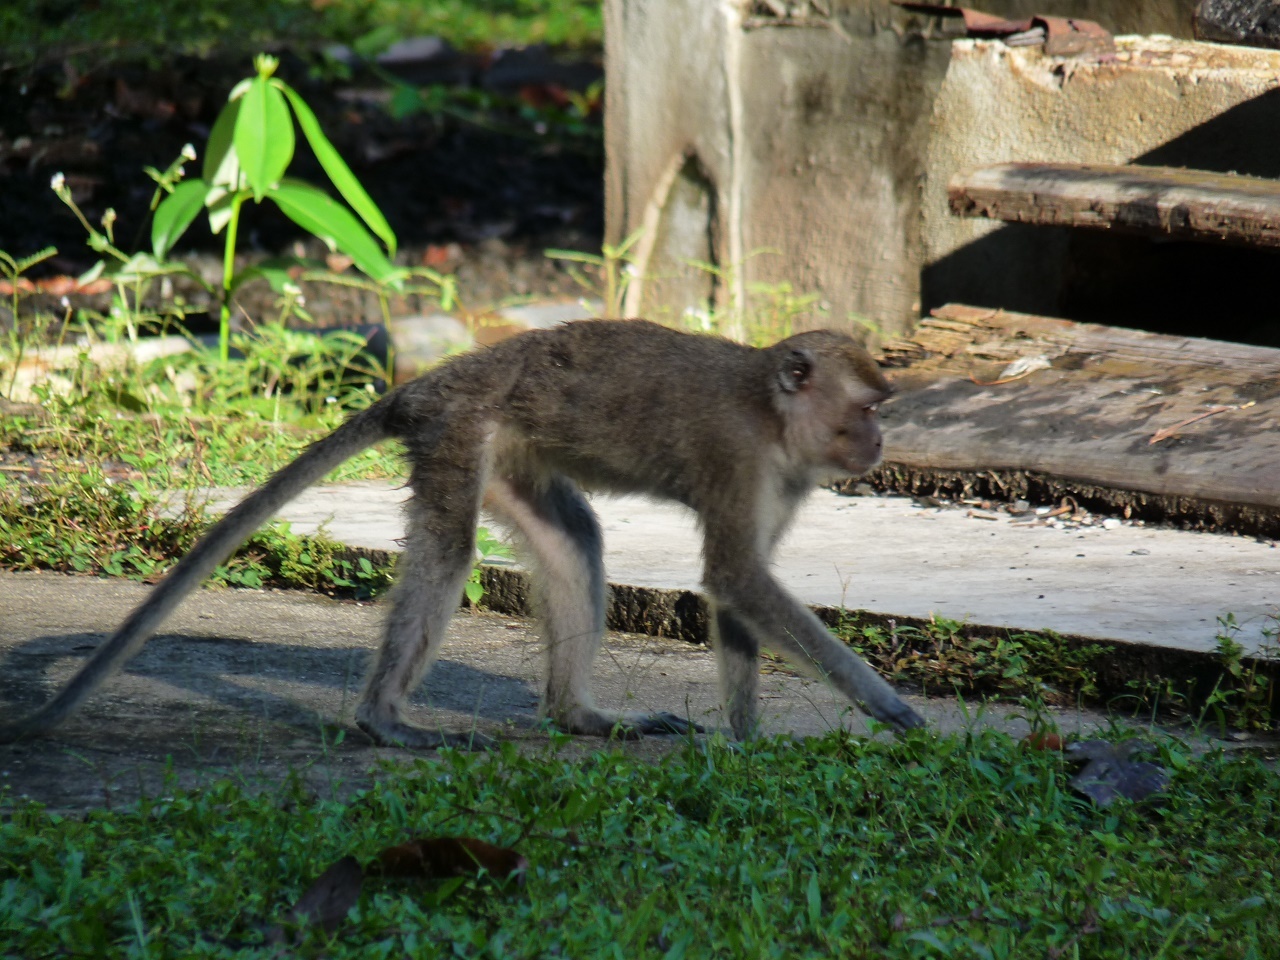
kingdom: Animalia
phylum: Chordata
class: Mammalia
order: Primates
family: Cercopithecidae
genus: Macaca
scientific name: Macaca fascicularis
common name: Crab-eating macaque
